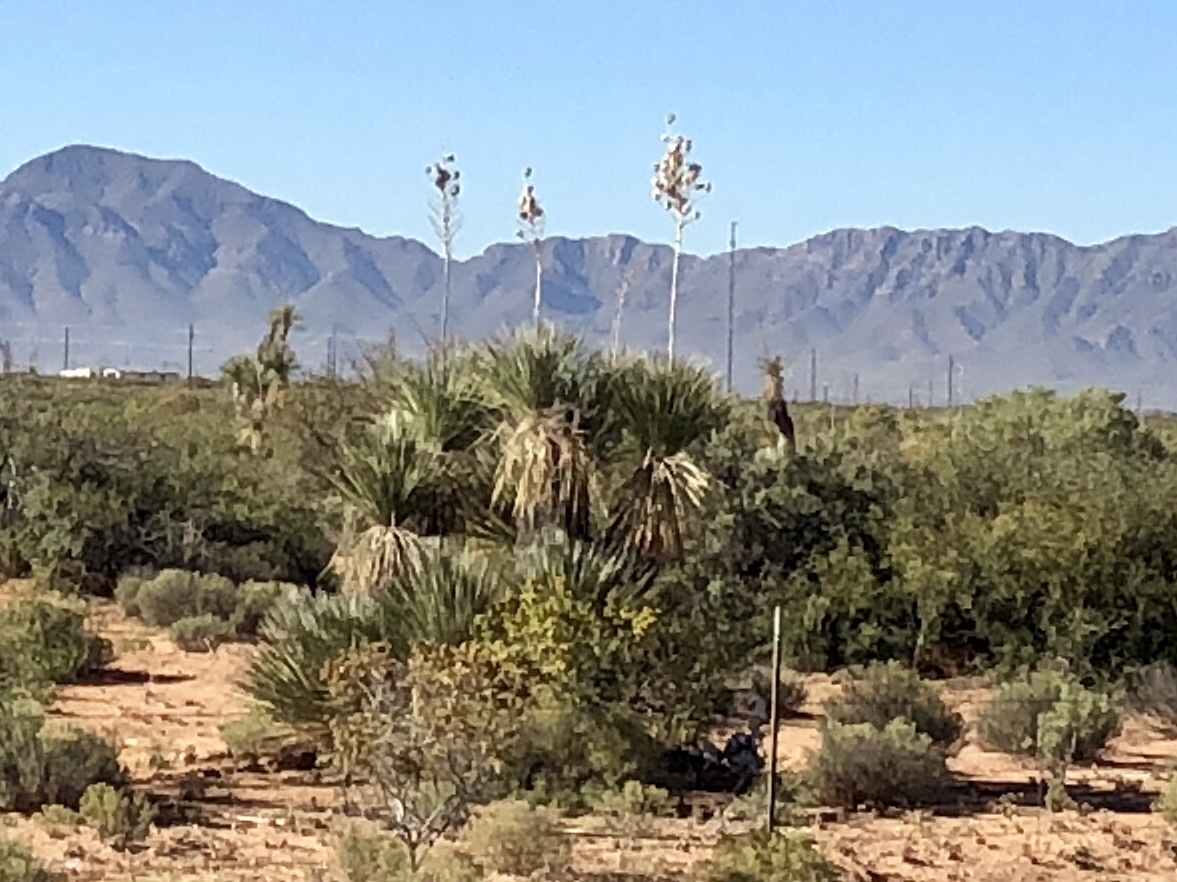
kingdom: Plantae
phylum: Tracheophyta
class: Liliopsida
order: Asparagales
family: Asparagaceae
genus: Yucca
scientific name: Yucca elata
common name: Palmella
